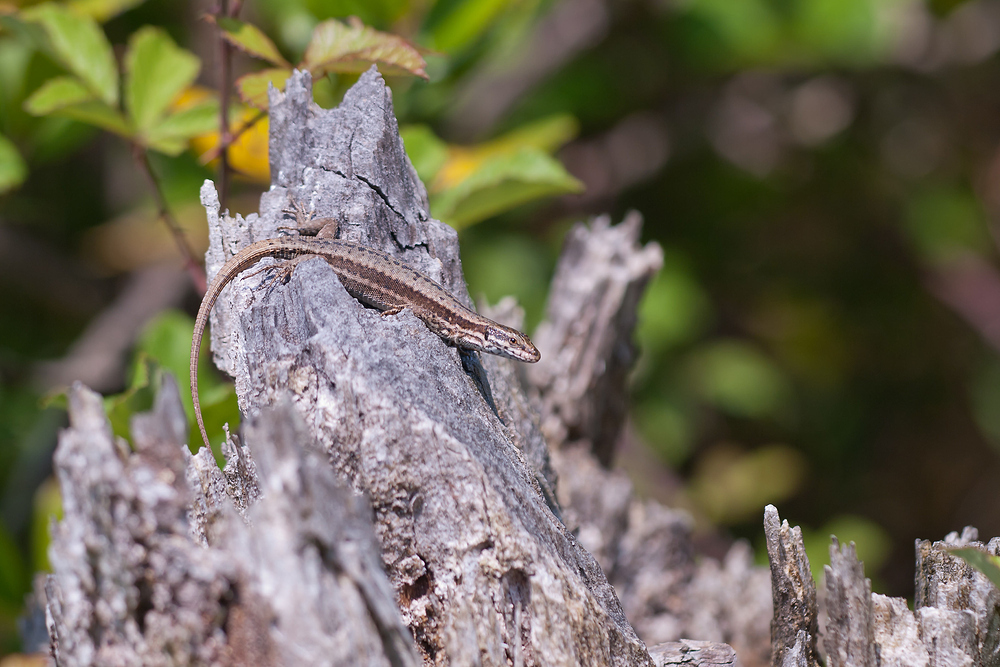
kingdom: Animalia
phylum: Chordata
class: Squamata
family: Lacertidae
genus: Podarcis
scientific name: Podarcis muralis
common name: Common wall lizard
